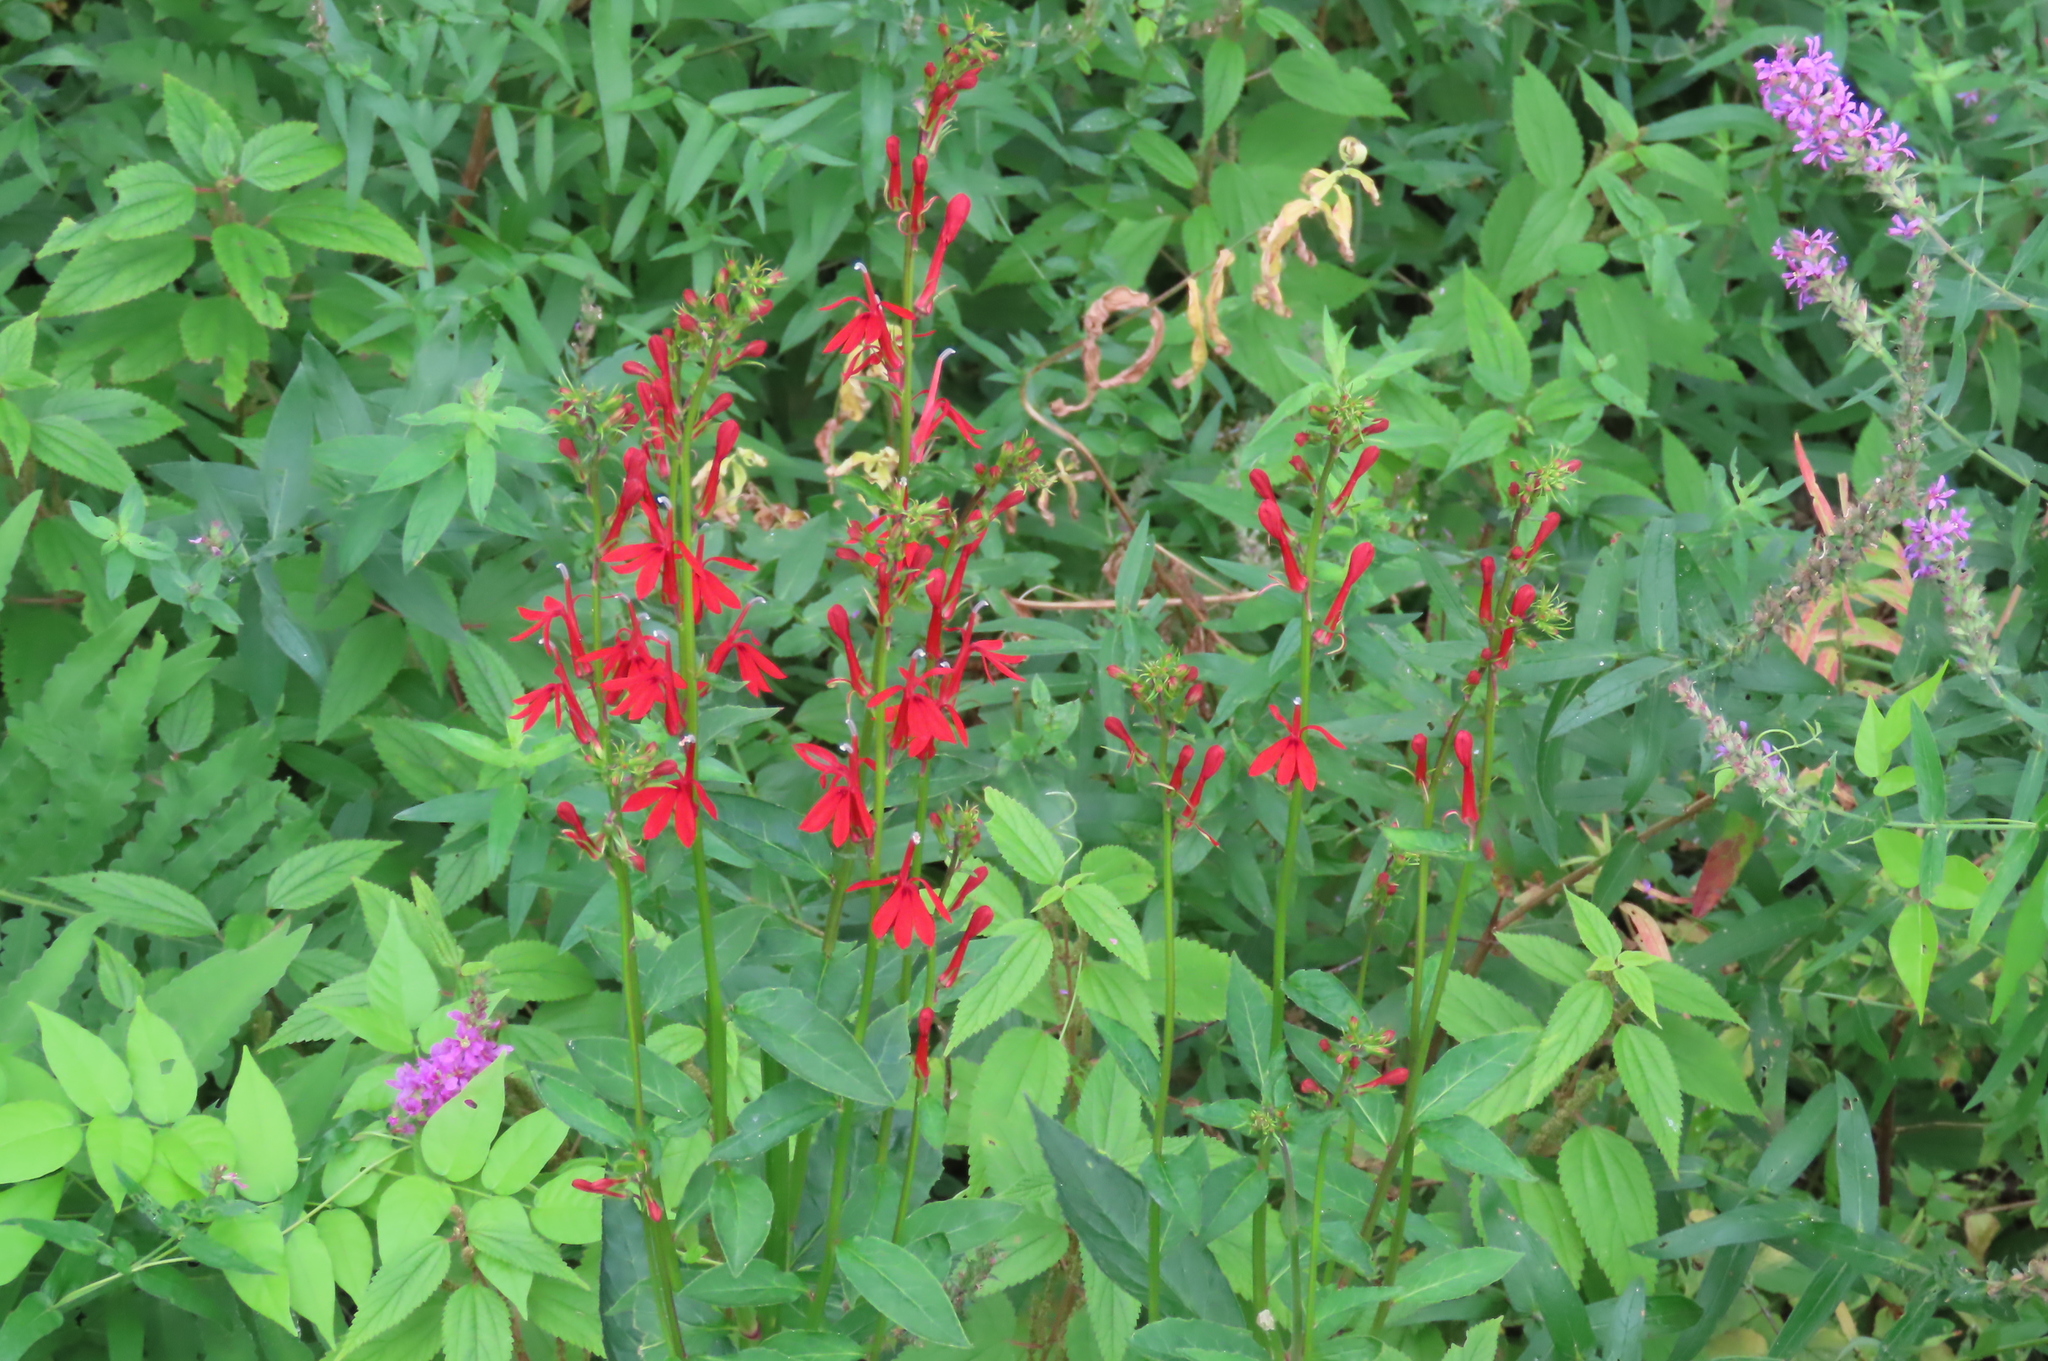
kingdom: Plantae
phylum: Tracheophyta
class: Magnoliopsida
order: Asterales
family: Campanulaceae
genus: Lobelia
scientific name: Lobelia cardinalis
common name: Cardinal flower
